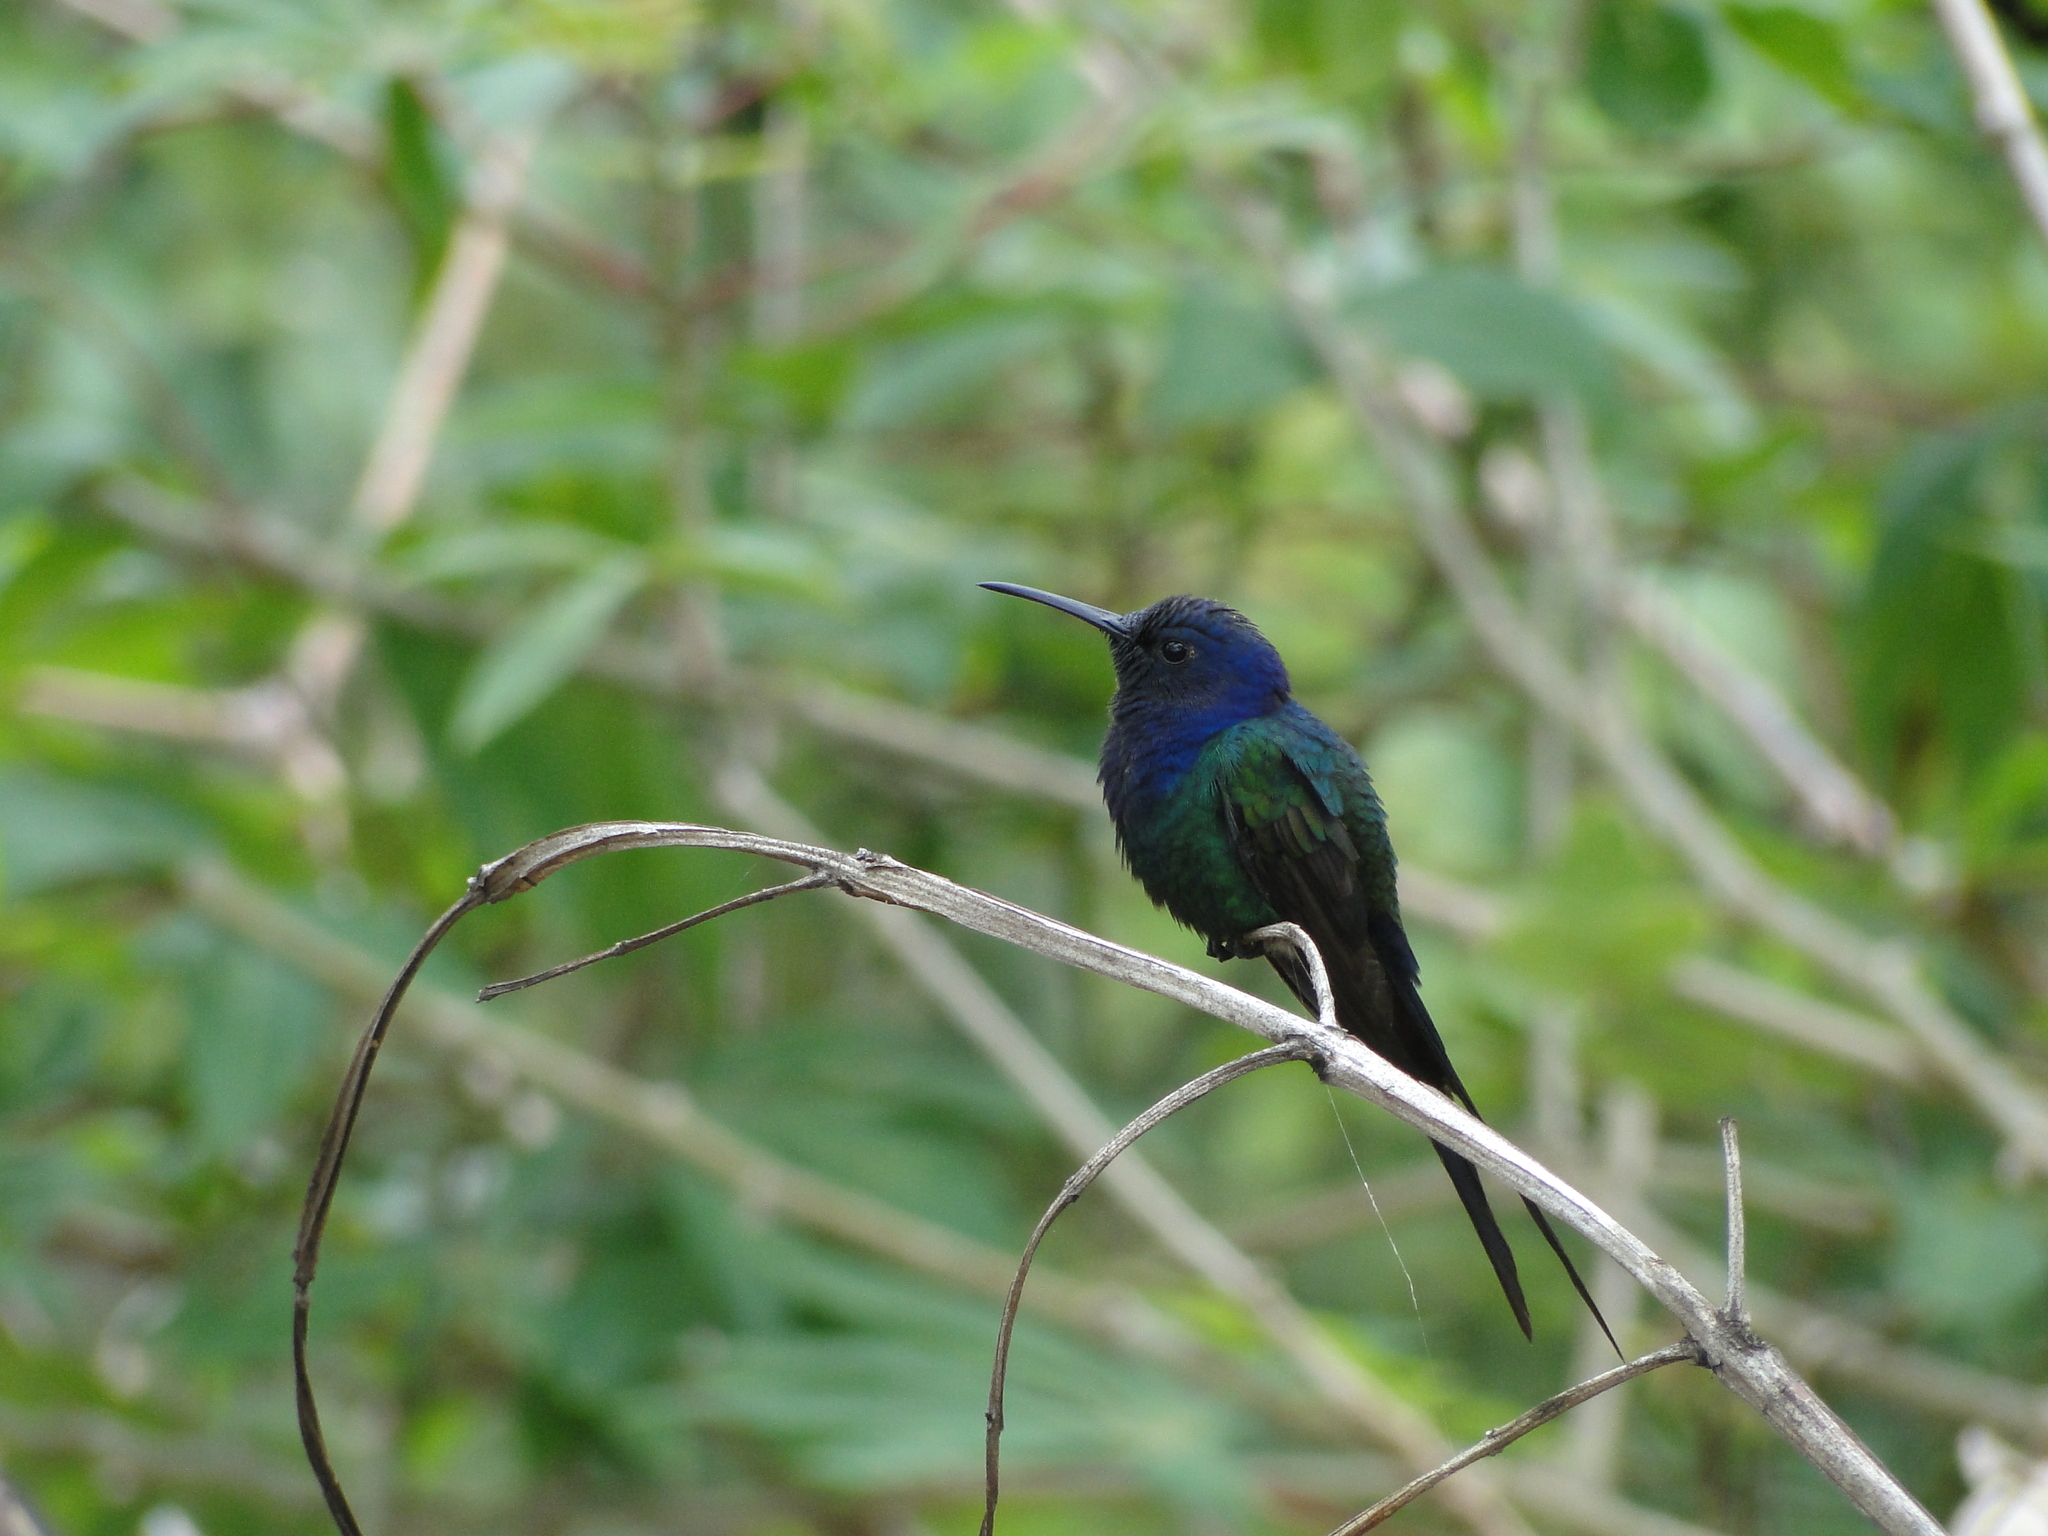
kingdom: Animalia
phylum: Chordata
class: Aves
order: Apodiformes
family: Trochilidae
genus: Eupetomena
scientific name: Eupetomena macroura
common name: Swallow-tailed hummingbird
